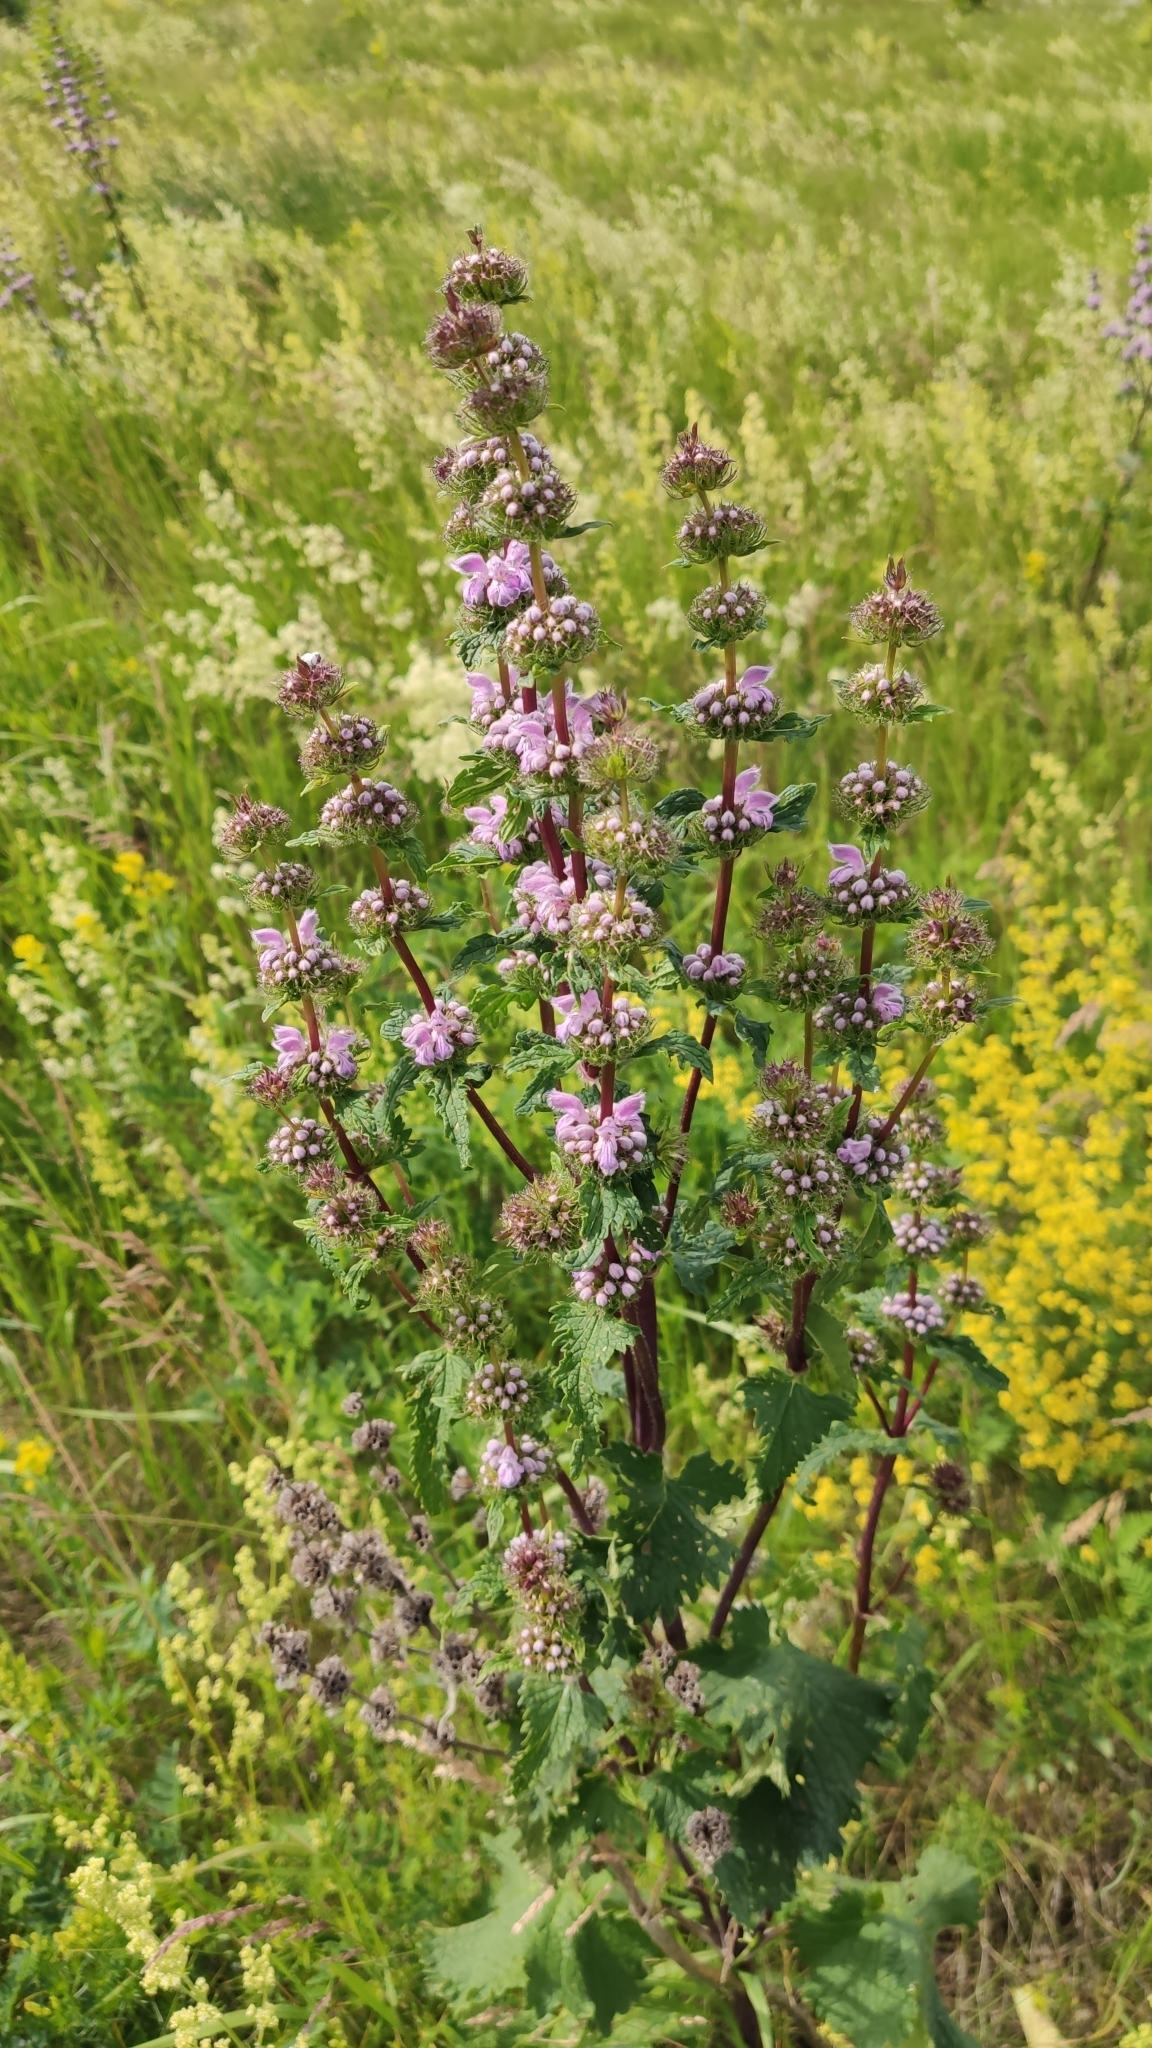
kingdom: Plantae
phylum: Tracheophyta
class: Magnoliopsida
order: Lamiales
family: Lamiaceae
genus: Phlomoides
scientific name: Phlomoides tuberosa
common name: Tuberous jerusalem sage
